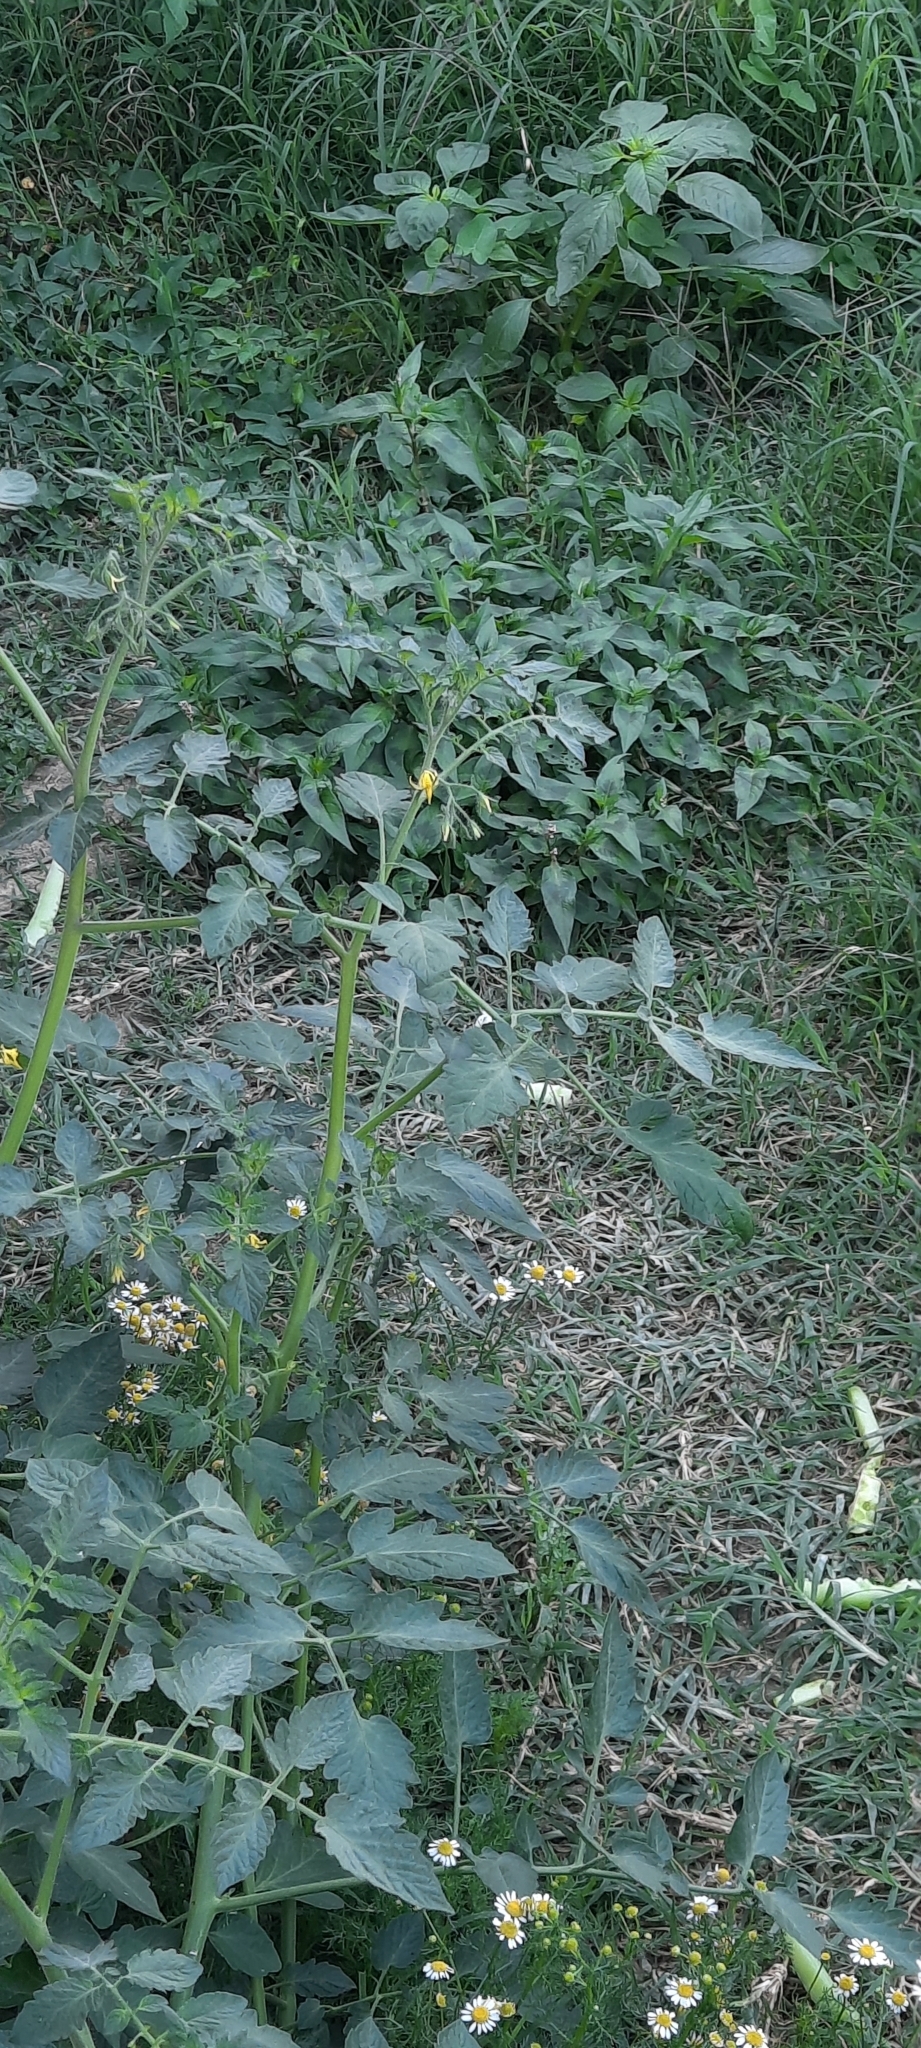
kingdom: Plantae
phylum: Tracheophyta
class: Magnoliopsida
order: Solanales
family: Solanaceae
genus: Solanum
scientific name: Solanum lycopersicum
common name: Garden tomato
